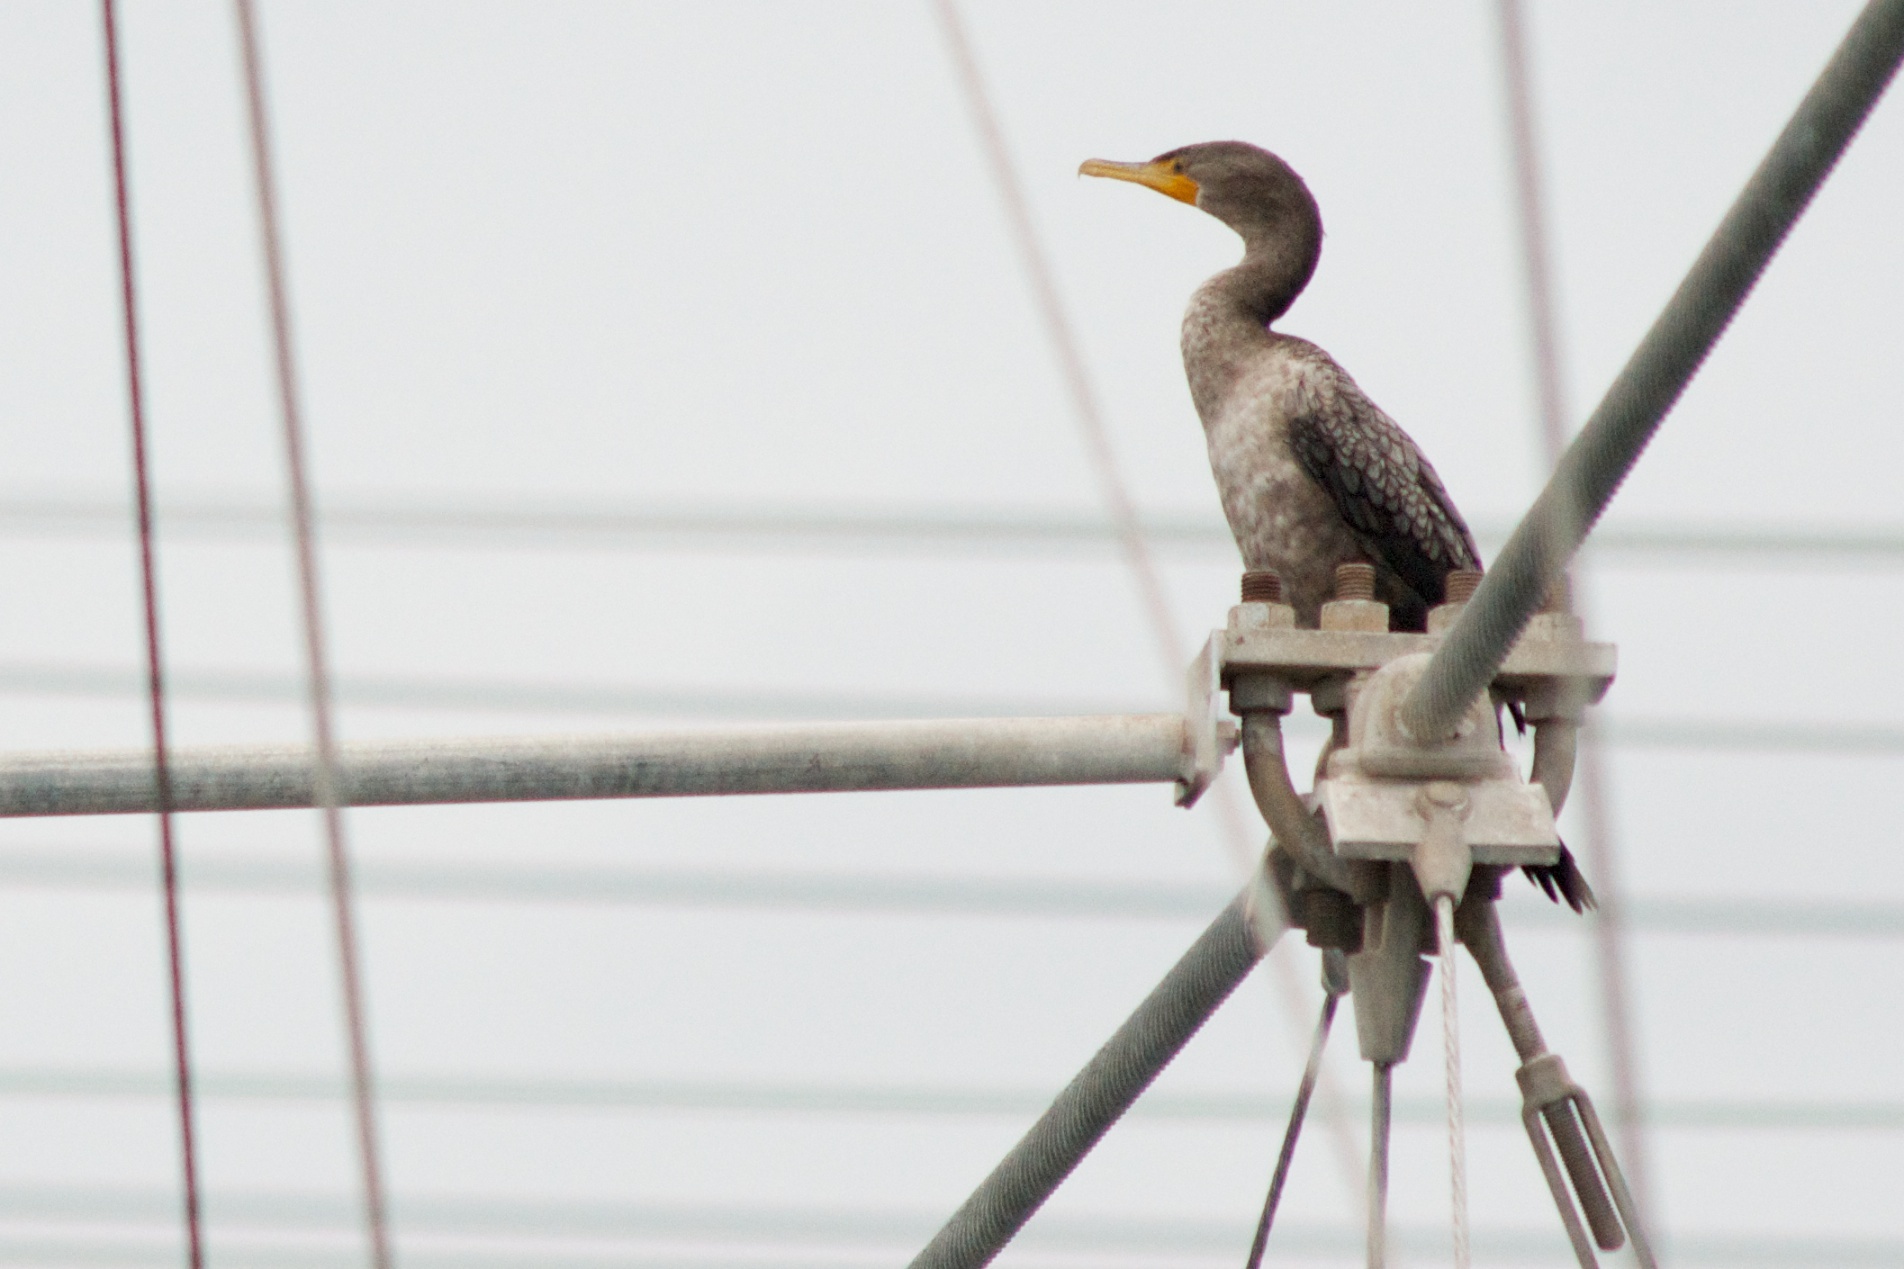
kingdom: Animalia
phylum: Chordata
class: Aves
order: Suliformes
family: Phalacrocoracidae
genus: Phalacrocorax
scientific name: Phalacrocorax auritus
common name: Double-crested cormorant
